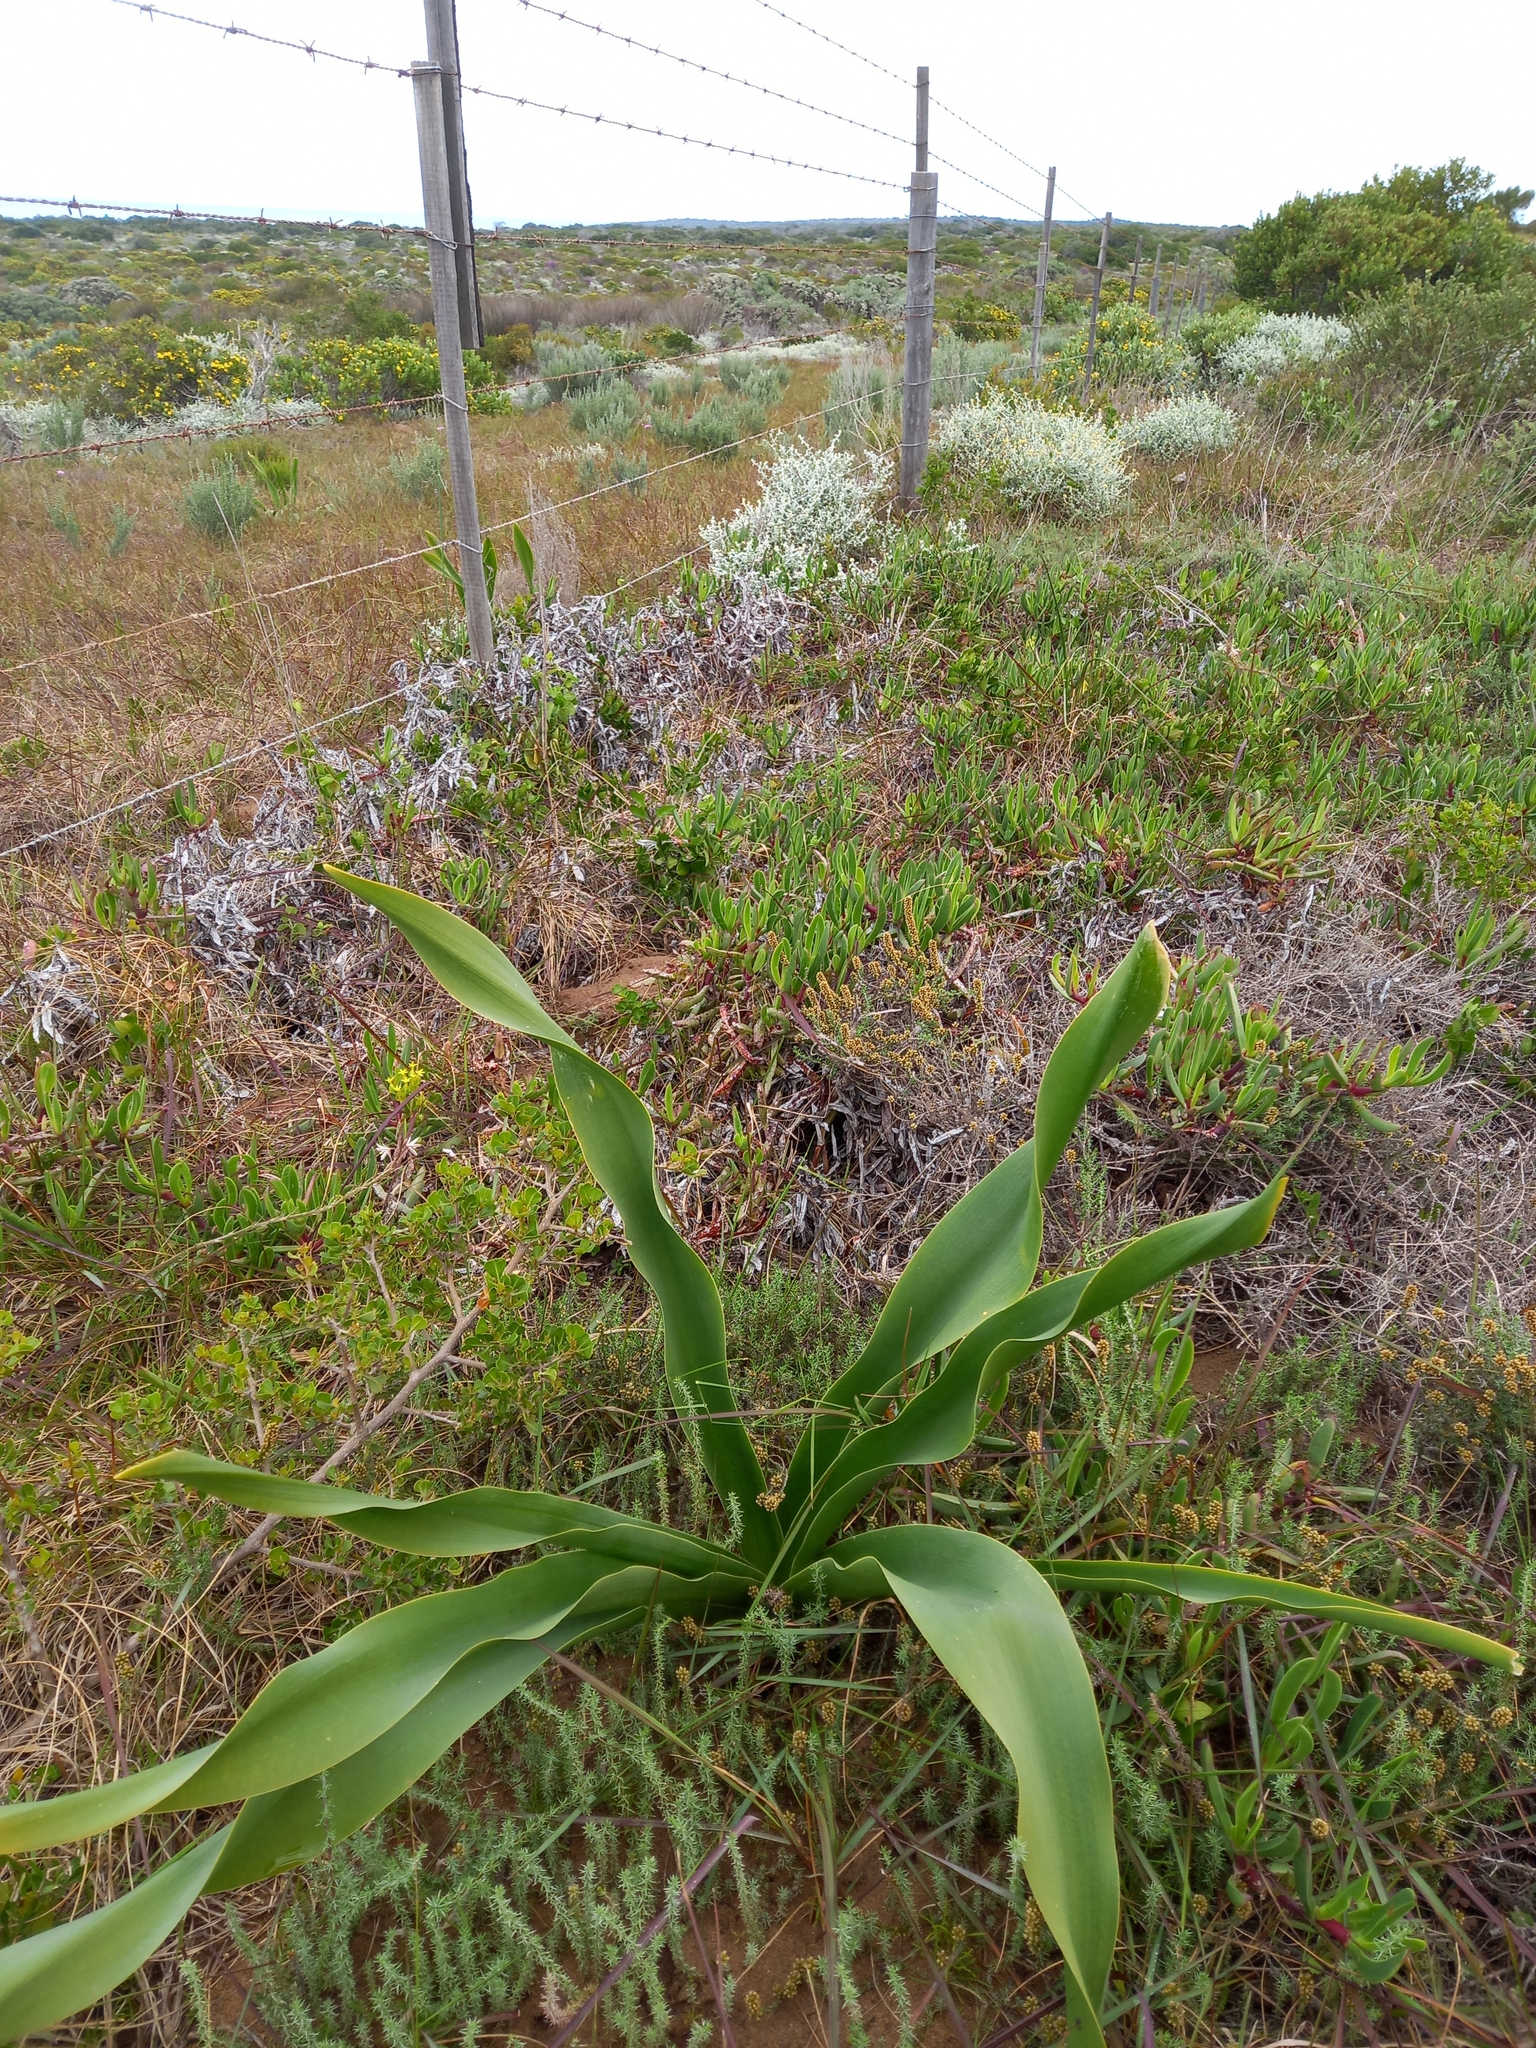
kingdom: Plantae
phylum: Tracheophyta
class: Liliopsida
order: Asparagales
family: Asparagaceae
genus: Drimia
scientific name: Drimia capensis
